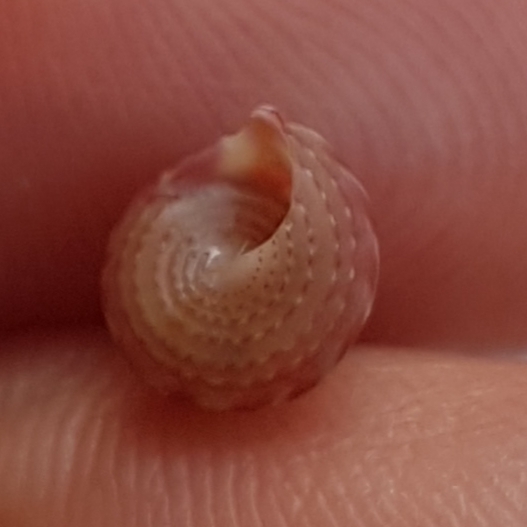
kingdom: Animalia
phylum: Mollusca
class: Gastropoda
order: Trochida
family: Trochidae
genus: Jujubinus
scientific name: Jujubinus exasperatus
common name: Rough top shell
